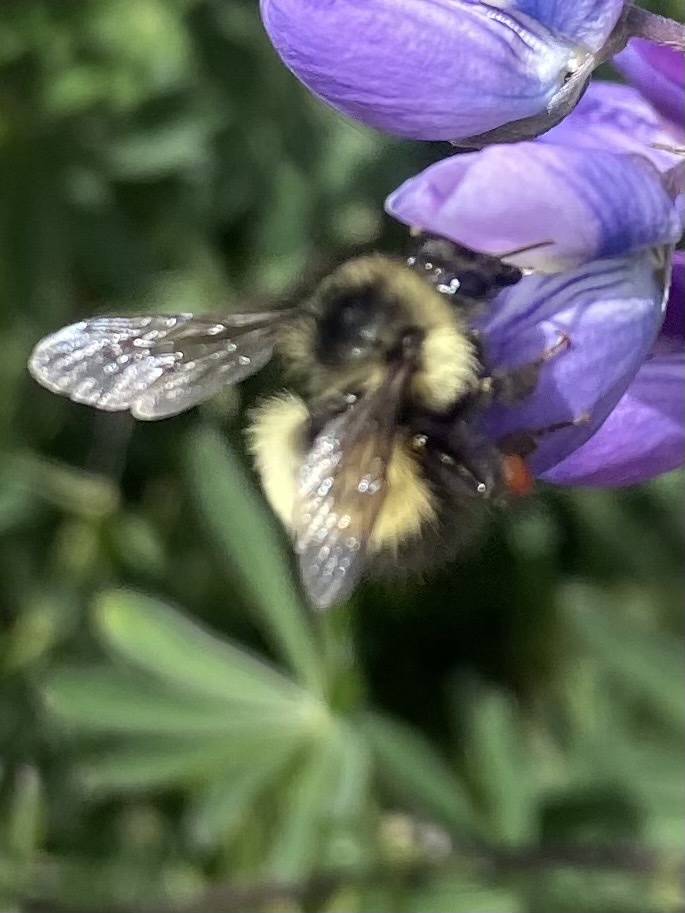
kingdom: Animalia
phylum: Arthropoda
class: Insecta
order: Hymenoptera
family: Apidae
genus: Bombus
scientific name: Bombus sitkensis
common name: Sitka bumble bee
